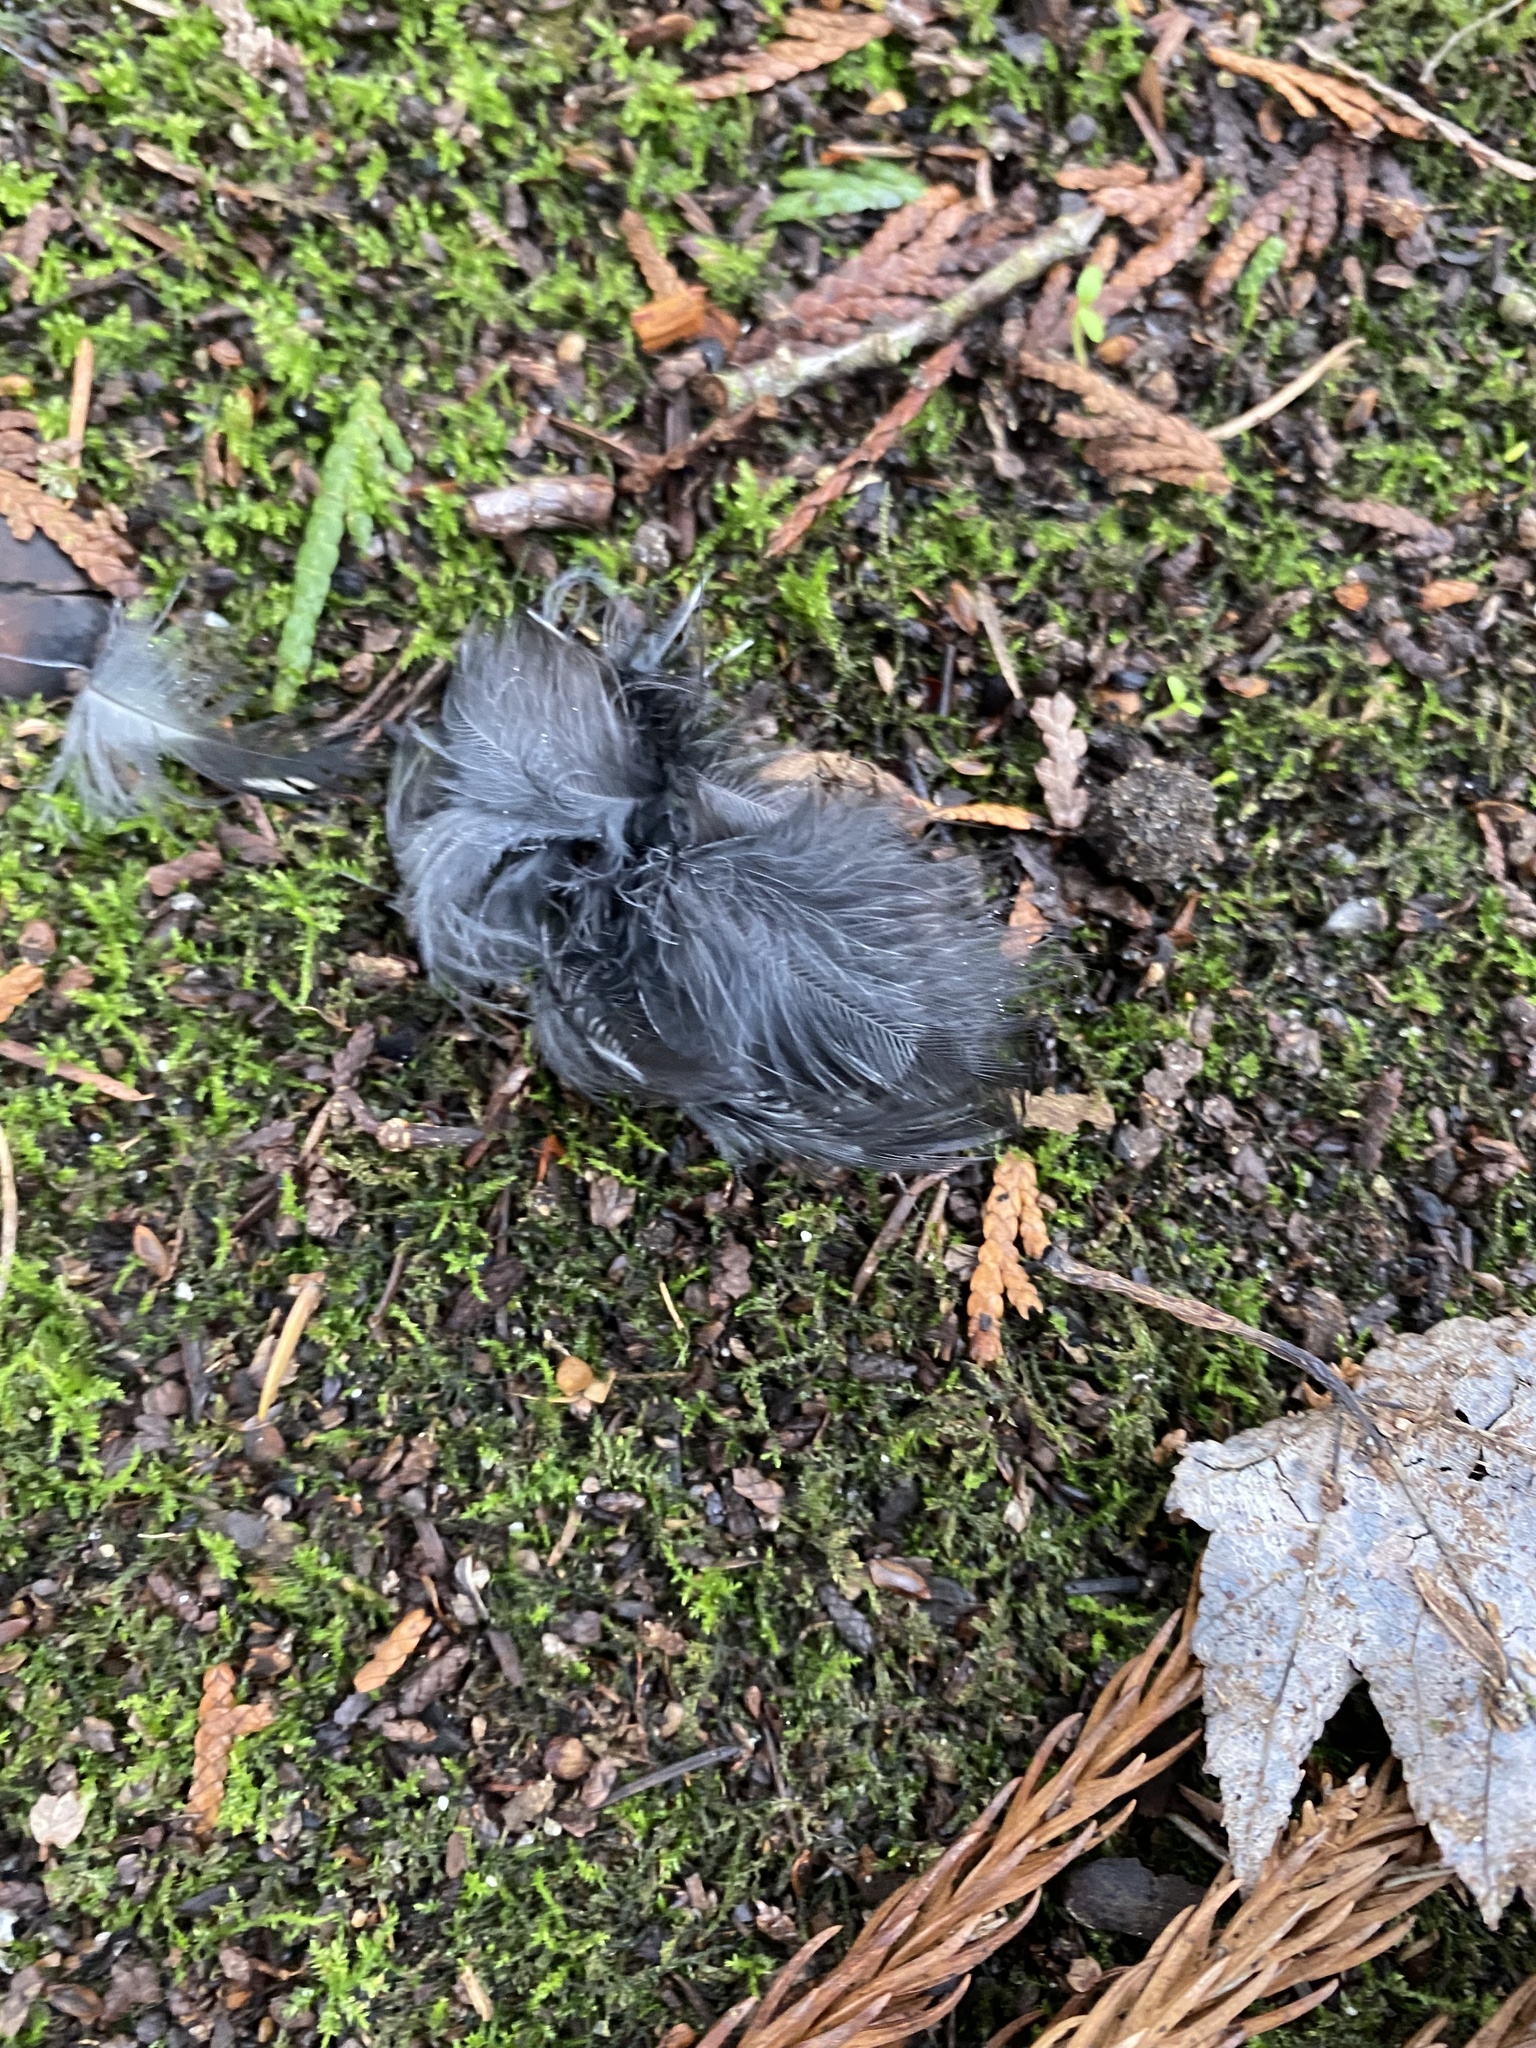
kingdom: Animalia
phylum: Chordata
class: Aves
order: Passeriformes
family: Passerellidae
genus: Pipilo
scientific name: Pipilo maculatus
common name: Spotted towhee
